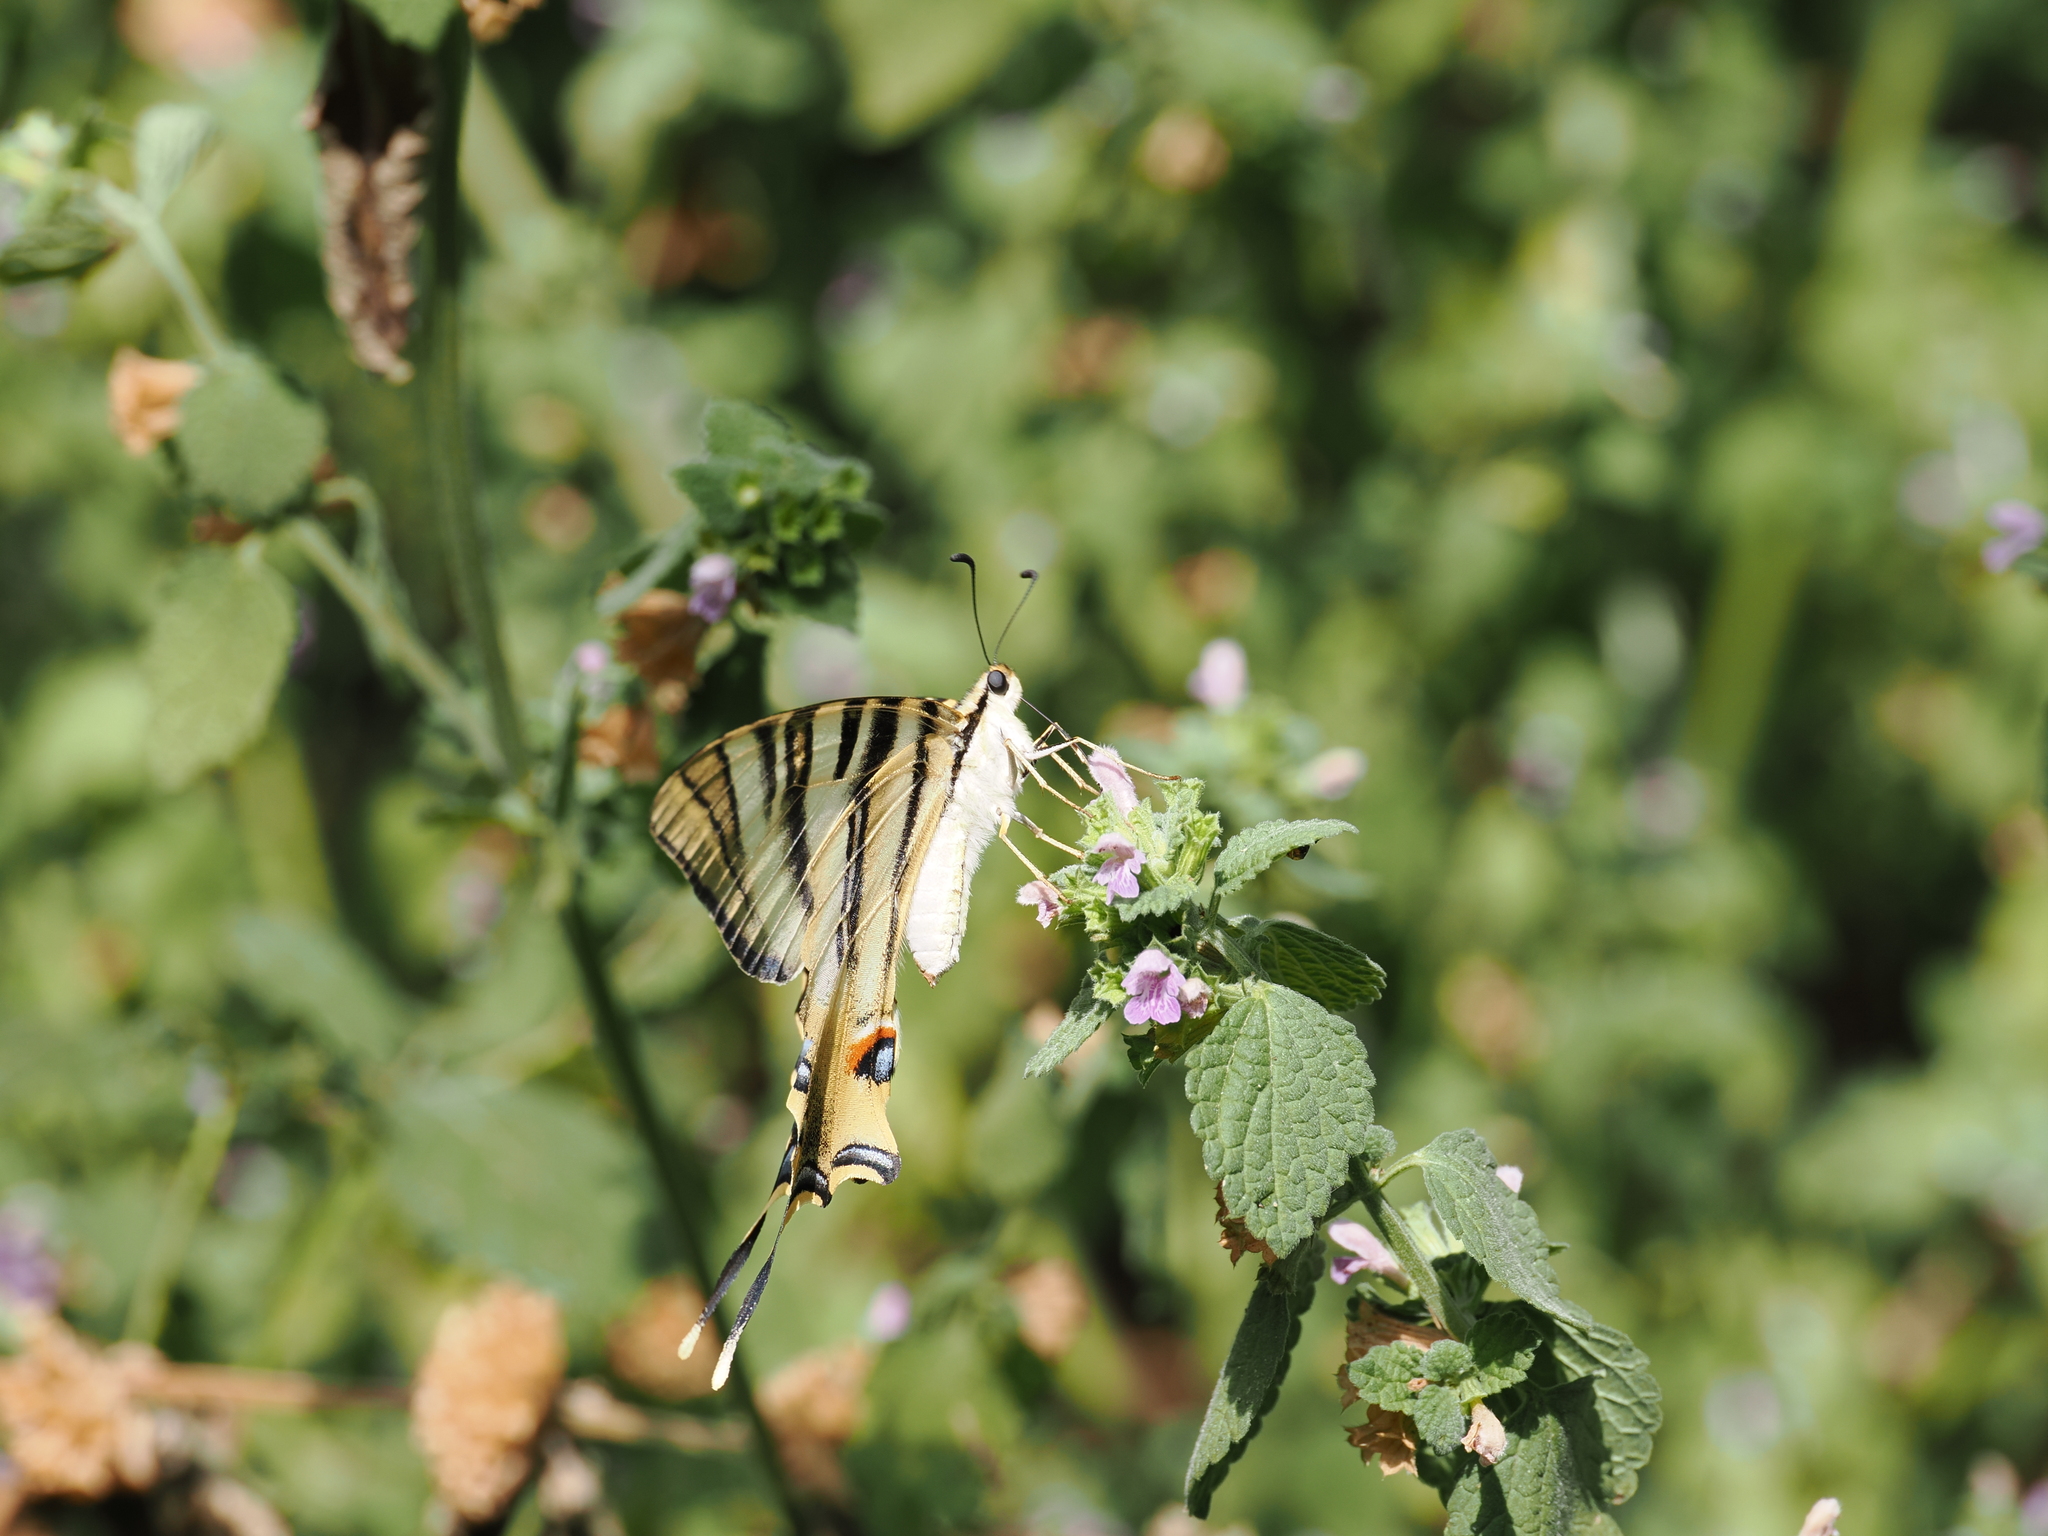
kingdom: Animalia
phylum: Arthropoda
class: Insecta
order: Lepidoptera
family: Papilionidae
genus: Iphiclides
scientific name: Iphiclides feisthamelii
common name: Iberian scarce swallowtail
